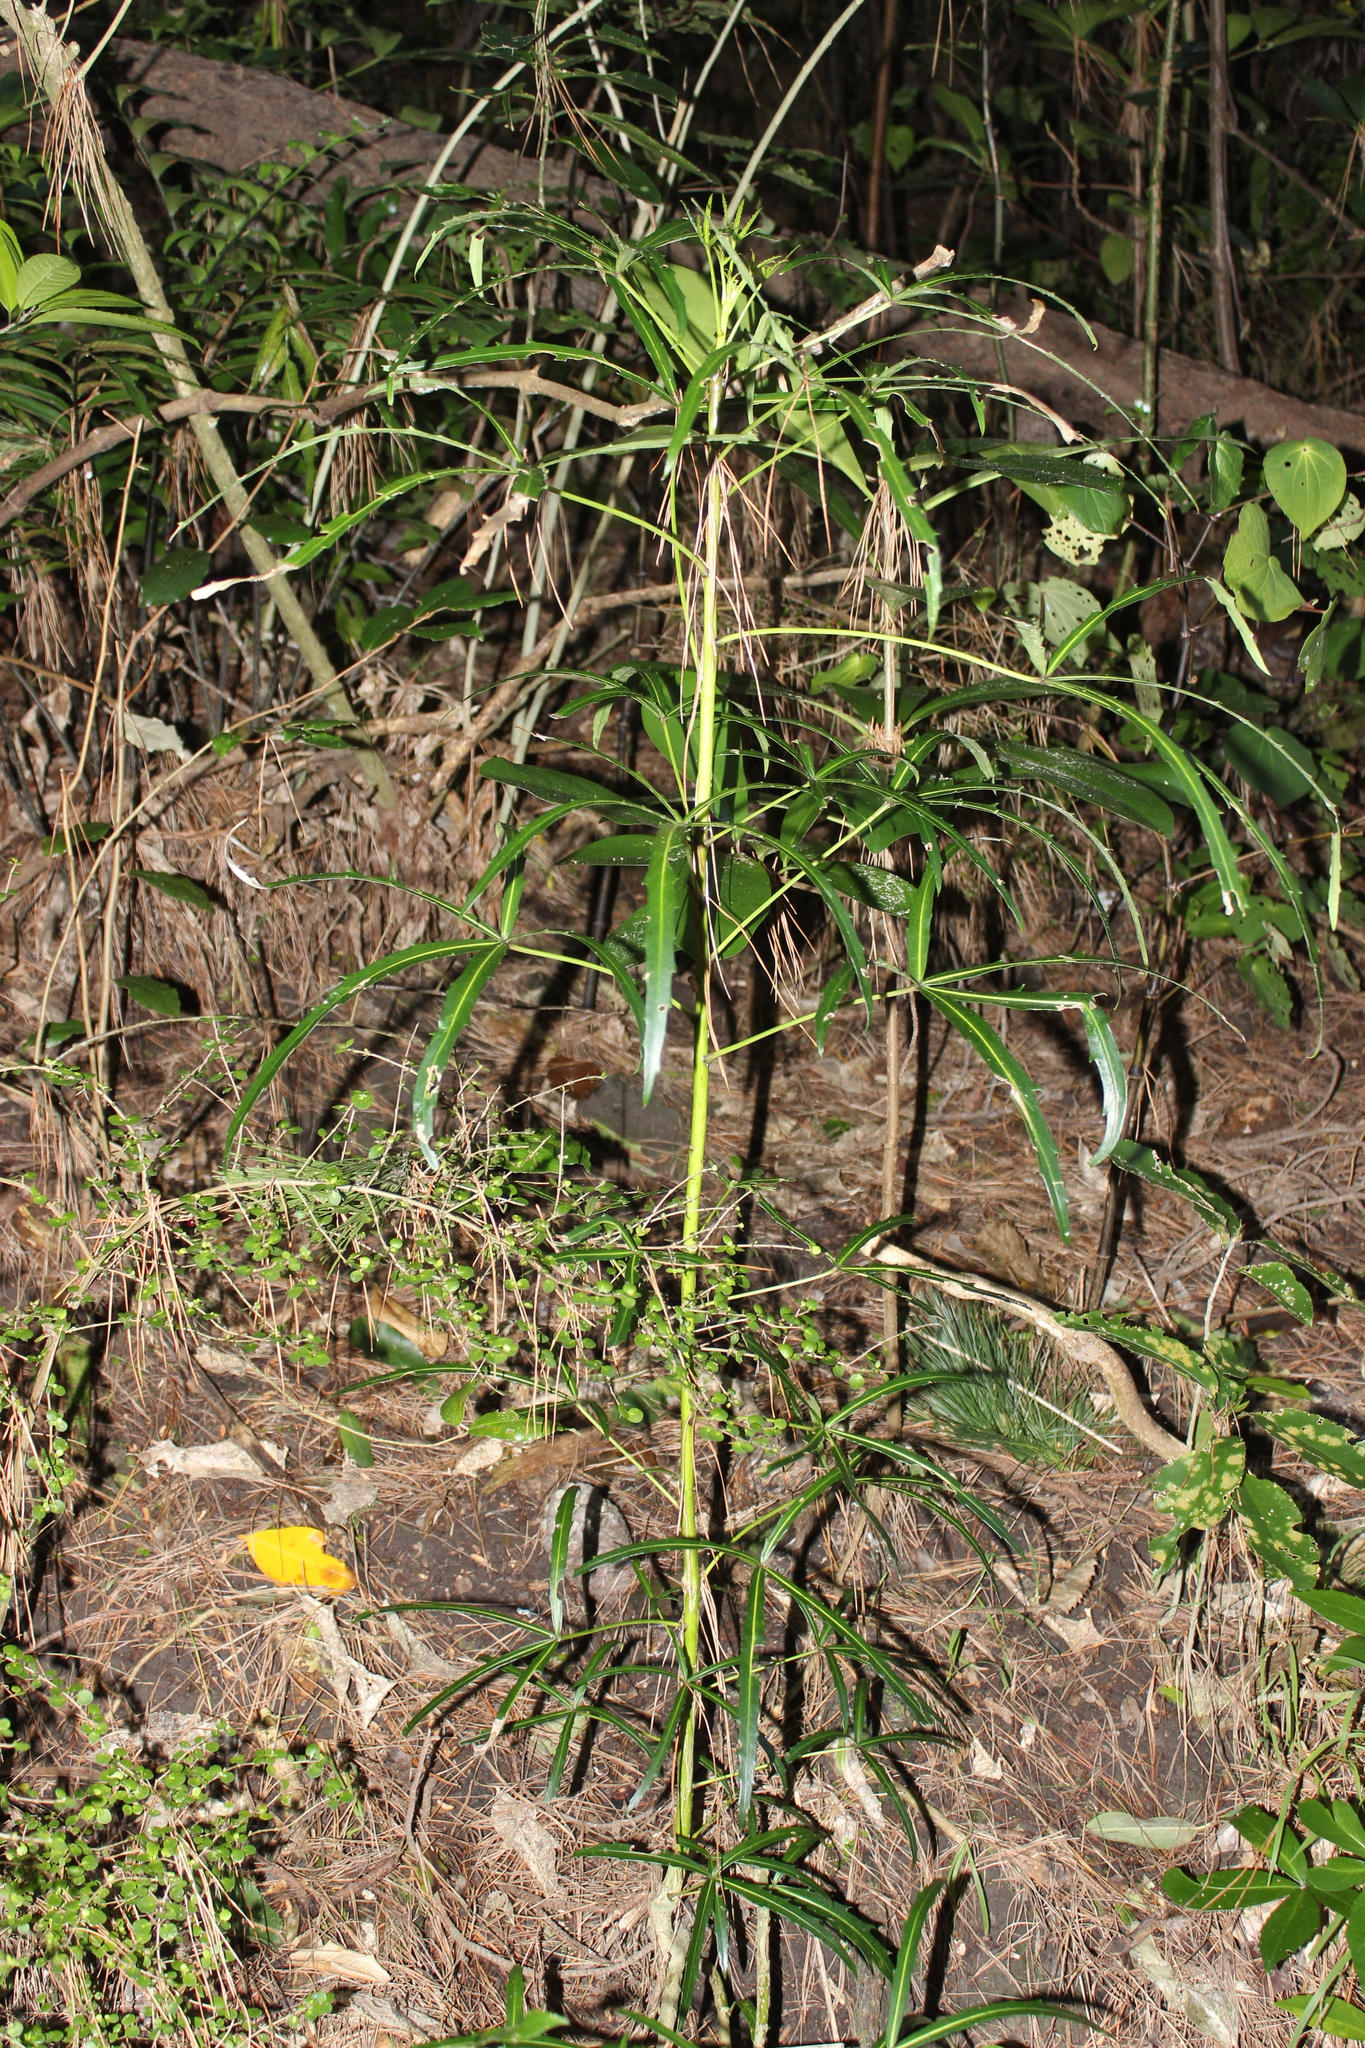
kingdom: Plantae
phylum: Tracheophyta
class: Magnoliopsida
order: Apiales
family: Araliaceae
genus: Pseudopanax
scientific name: Pseudopanax
